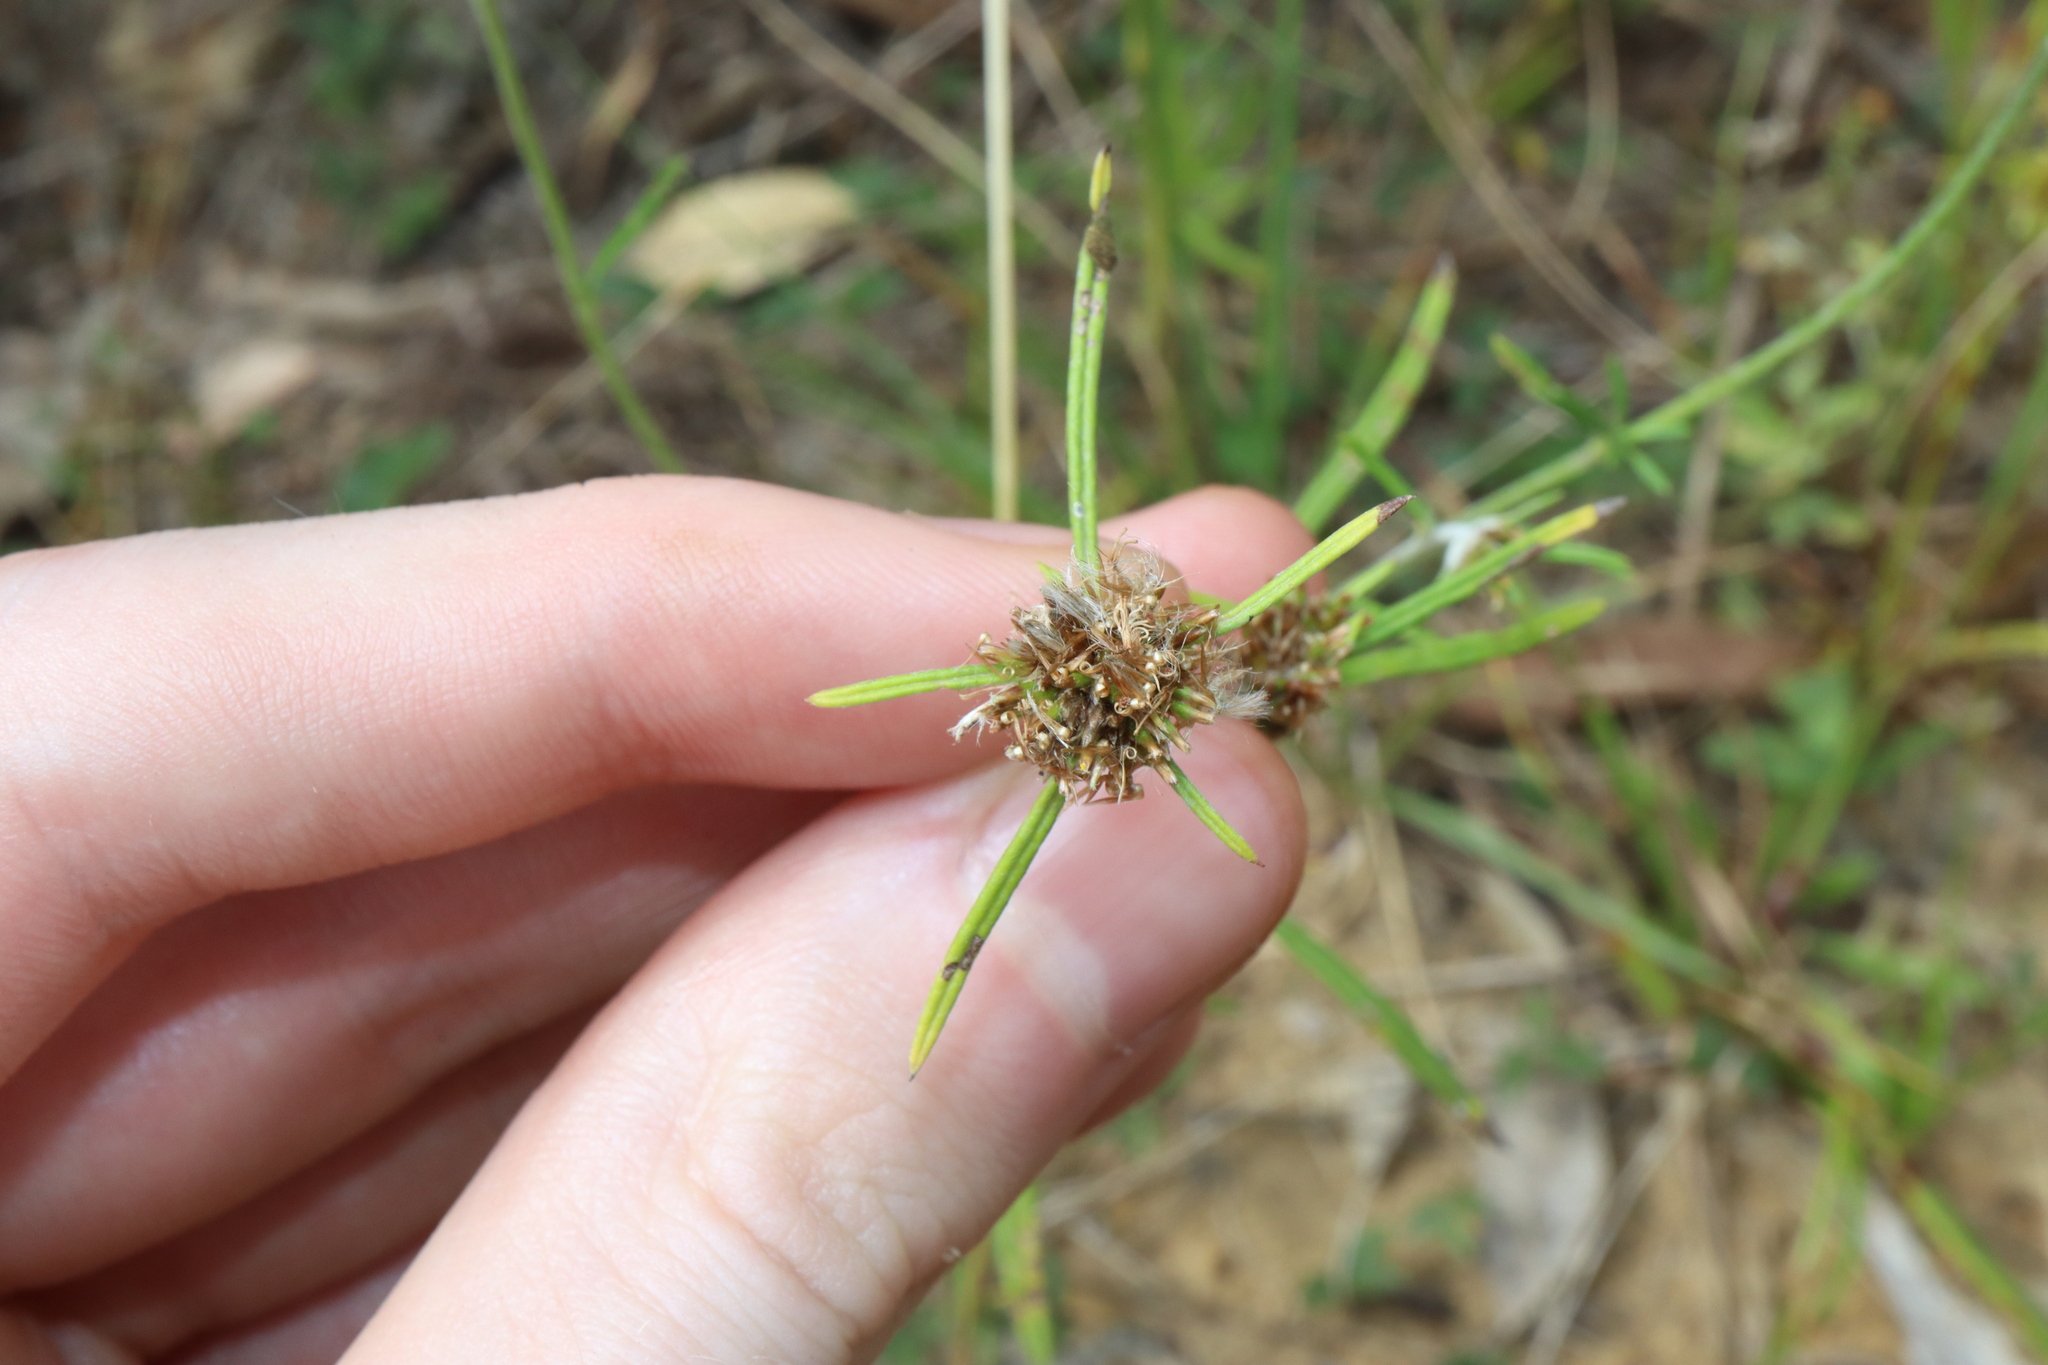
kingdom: Plantae
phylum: Tracheophyta
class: Magnoliopsida
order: Asterales
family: Asteraceae
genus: Euchiton
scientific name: Euchiton sphaericus
